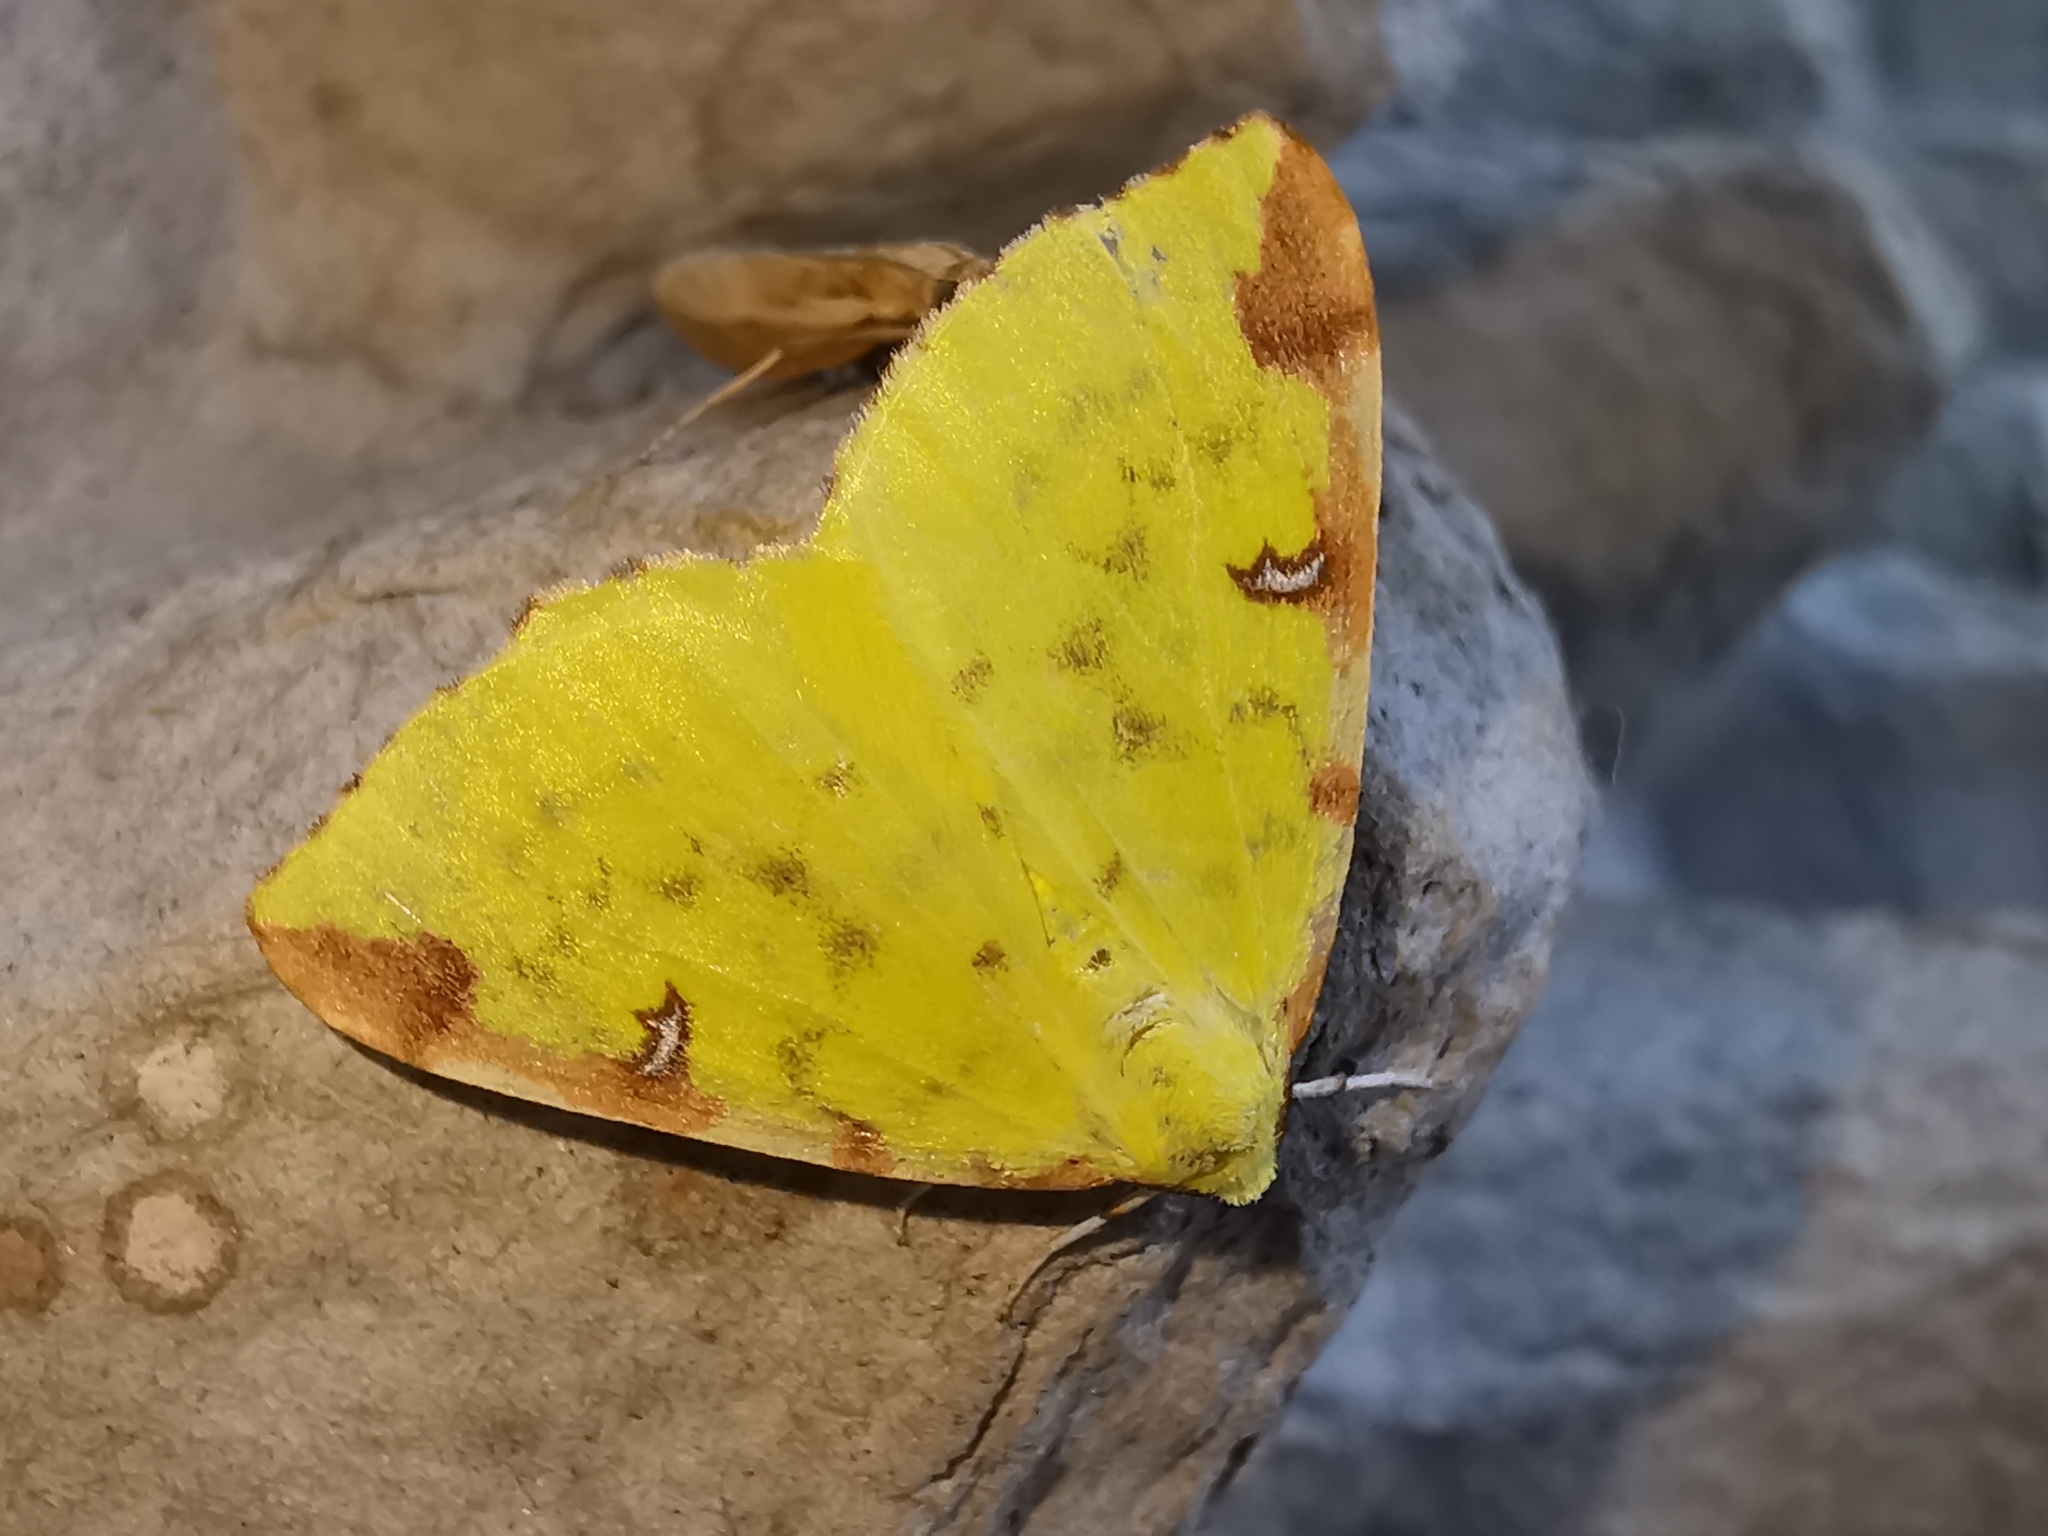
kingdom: Animalia
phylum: Arthropoda
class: Insecta
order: Lepidoptera
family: Geometridae
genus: Opisthograptis
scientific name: Opisthograptis luteolata
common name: Brimstone moth
